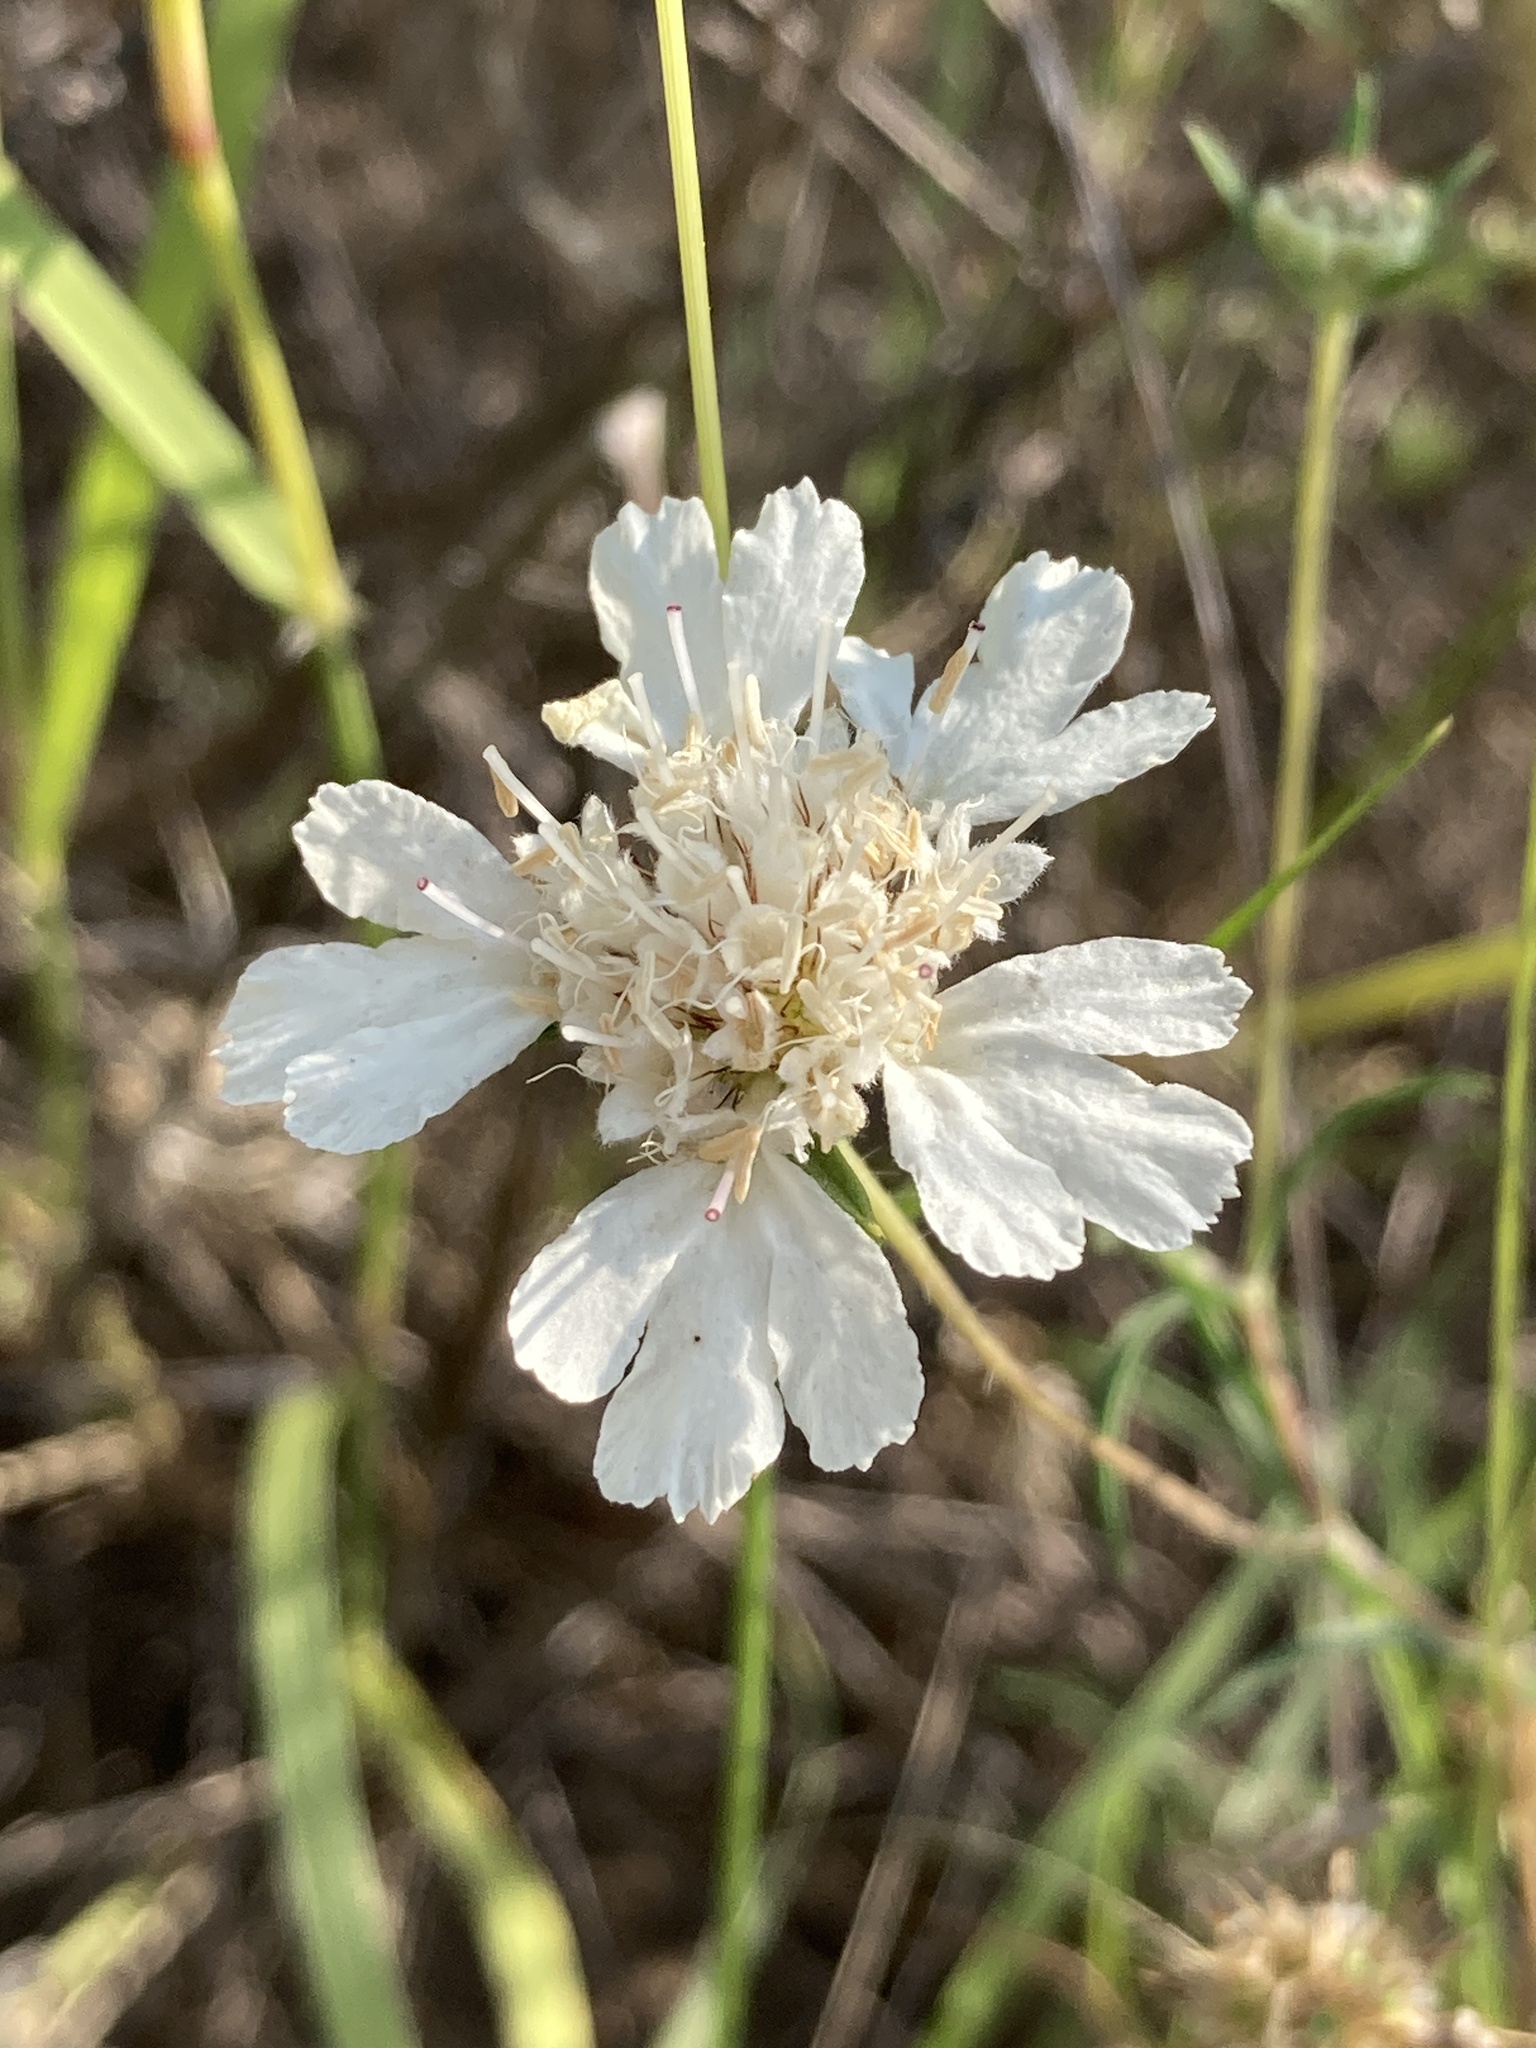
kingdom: Plantae
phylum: Tracheophyta
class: Magnoliopsida
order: Dipsacales
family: Caprifoliaceae
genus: Lomelosia
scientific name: Lomelosia argentea
